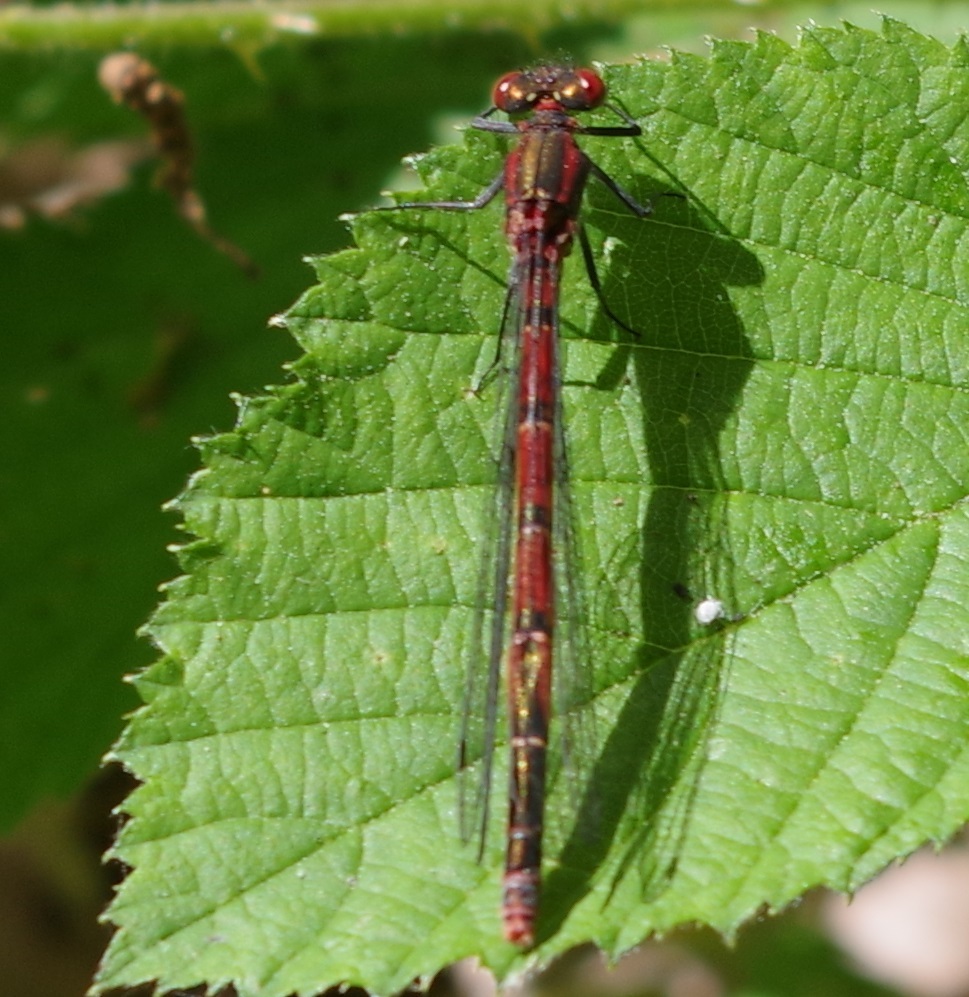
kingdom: Animalia
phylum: Arthropoda
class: Insecta
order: Odonata
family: Coenagrionidae
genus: Pyrrhosoma
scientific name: Pyrrhosoma nymphula
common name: Large red damsel
